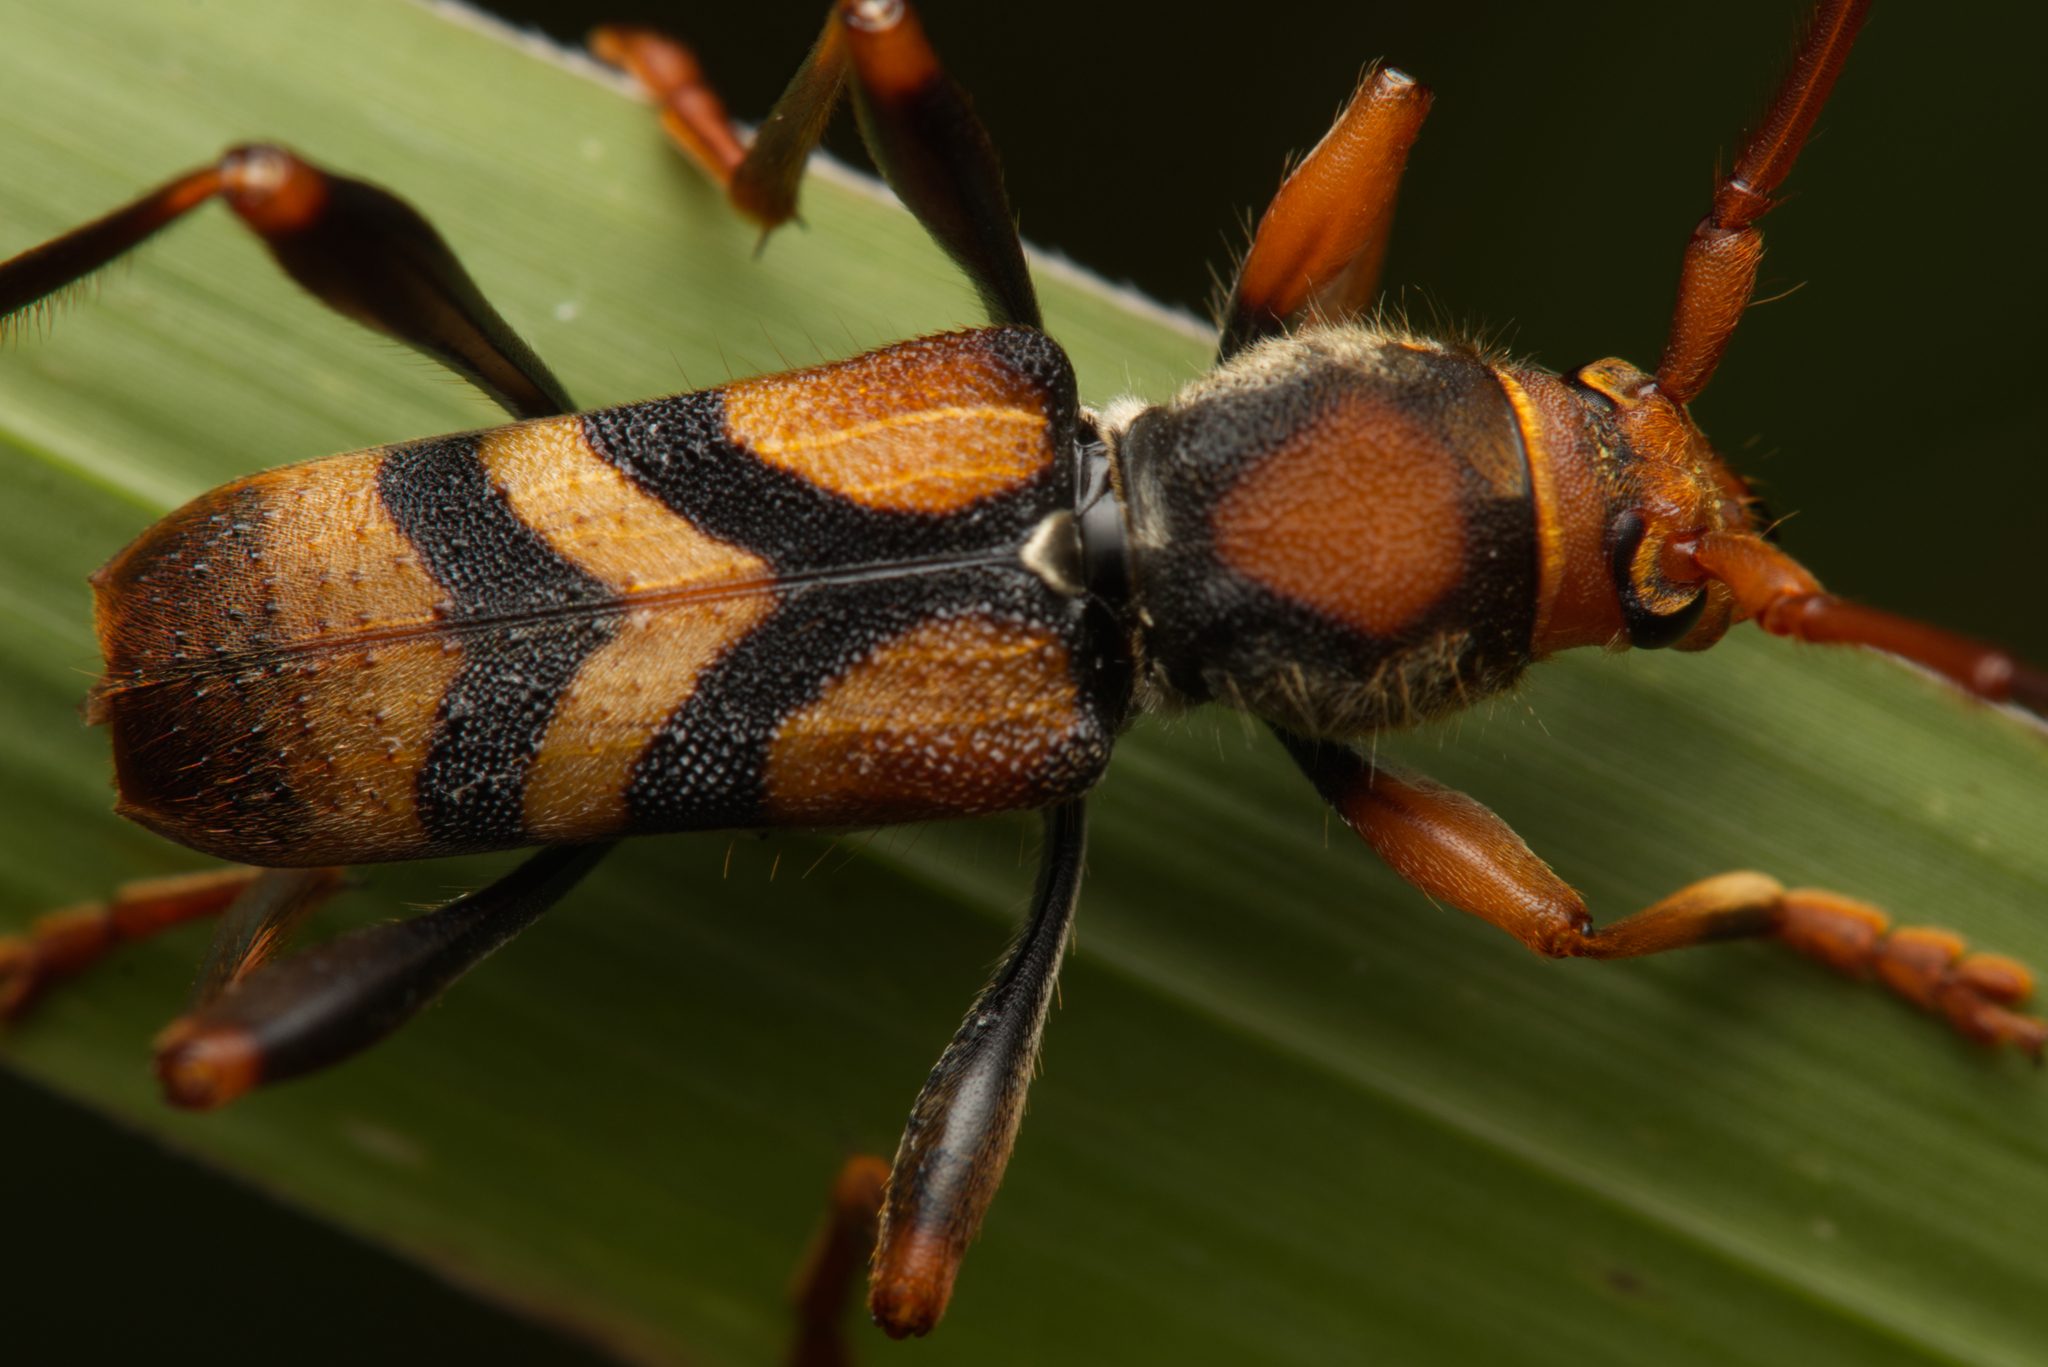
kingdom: Animalia
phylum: Arthropoda
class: Insecta
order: Coleoptera
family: Cerambycidae
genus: Aridaeus
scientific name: Aridaeus thoracicus
